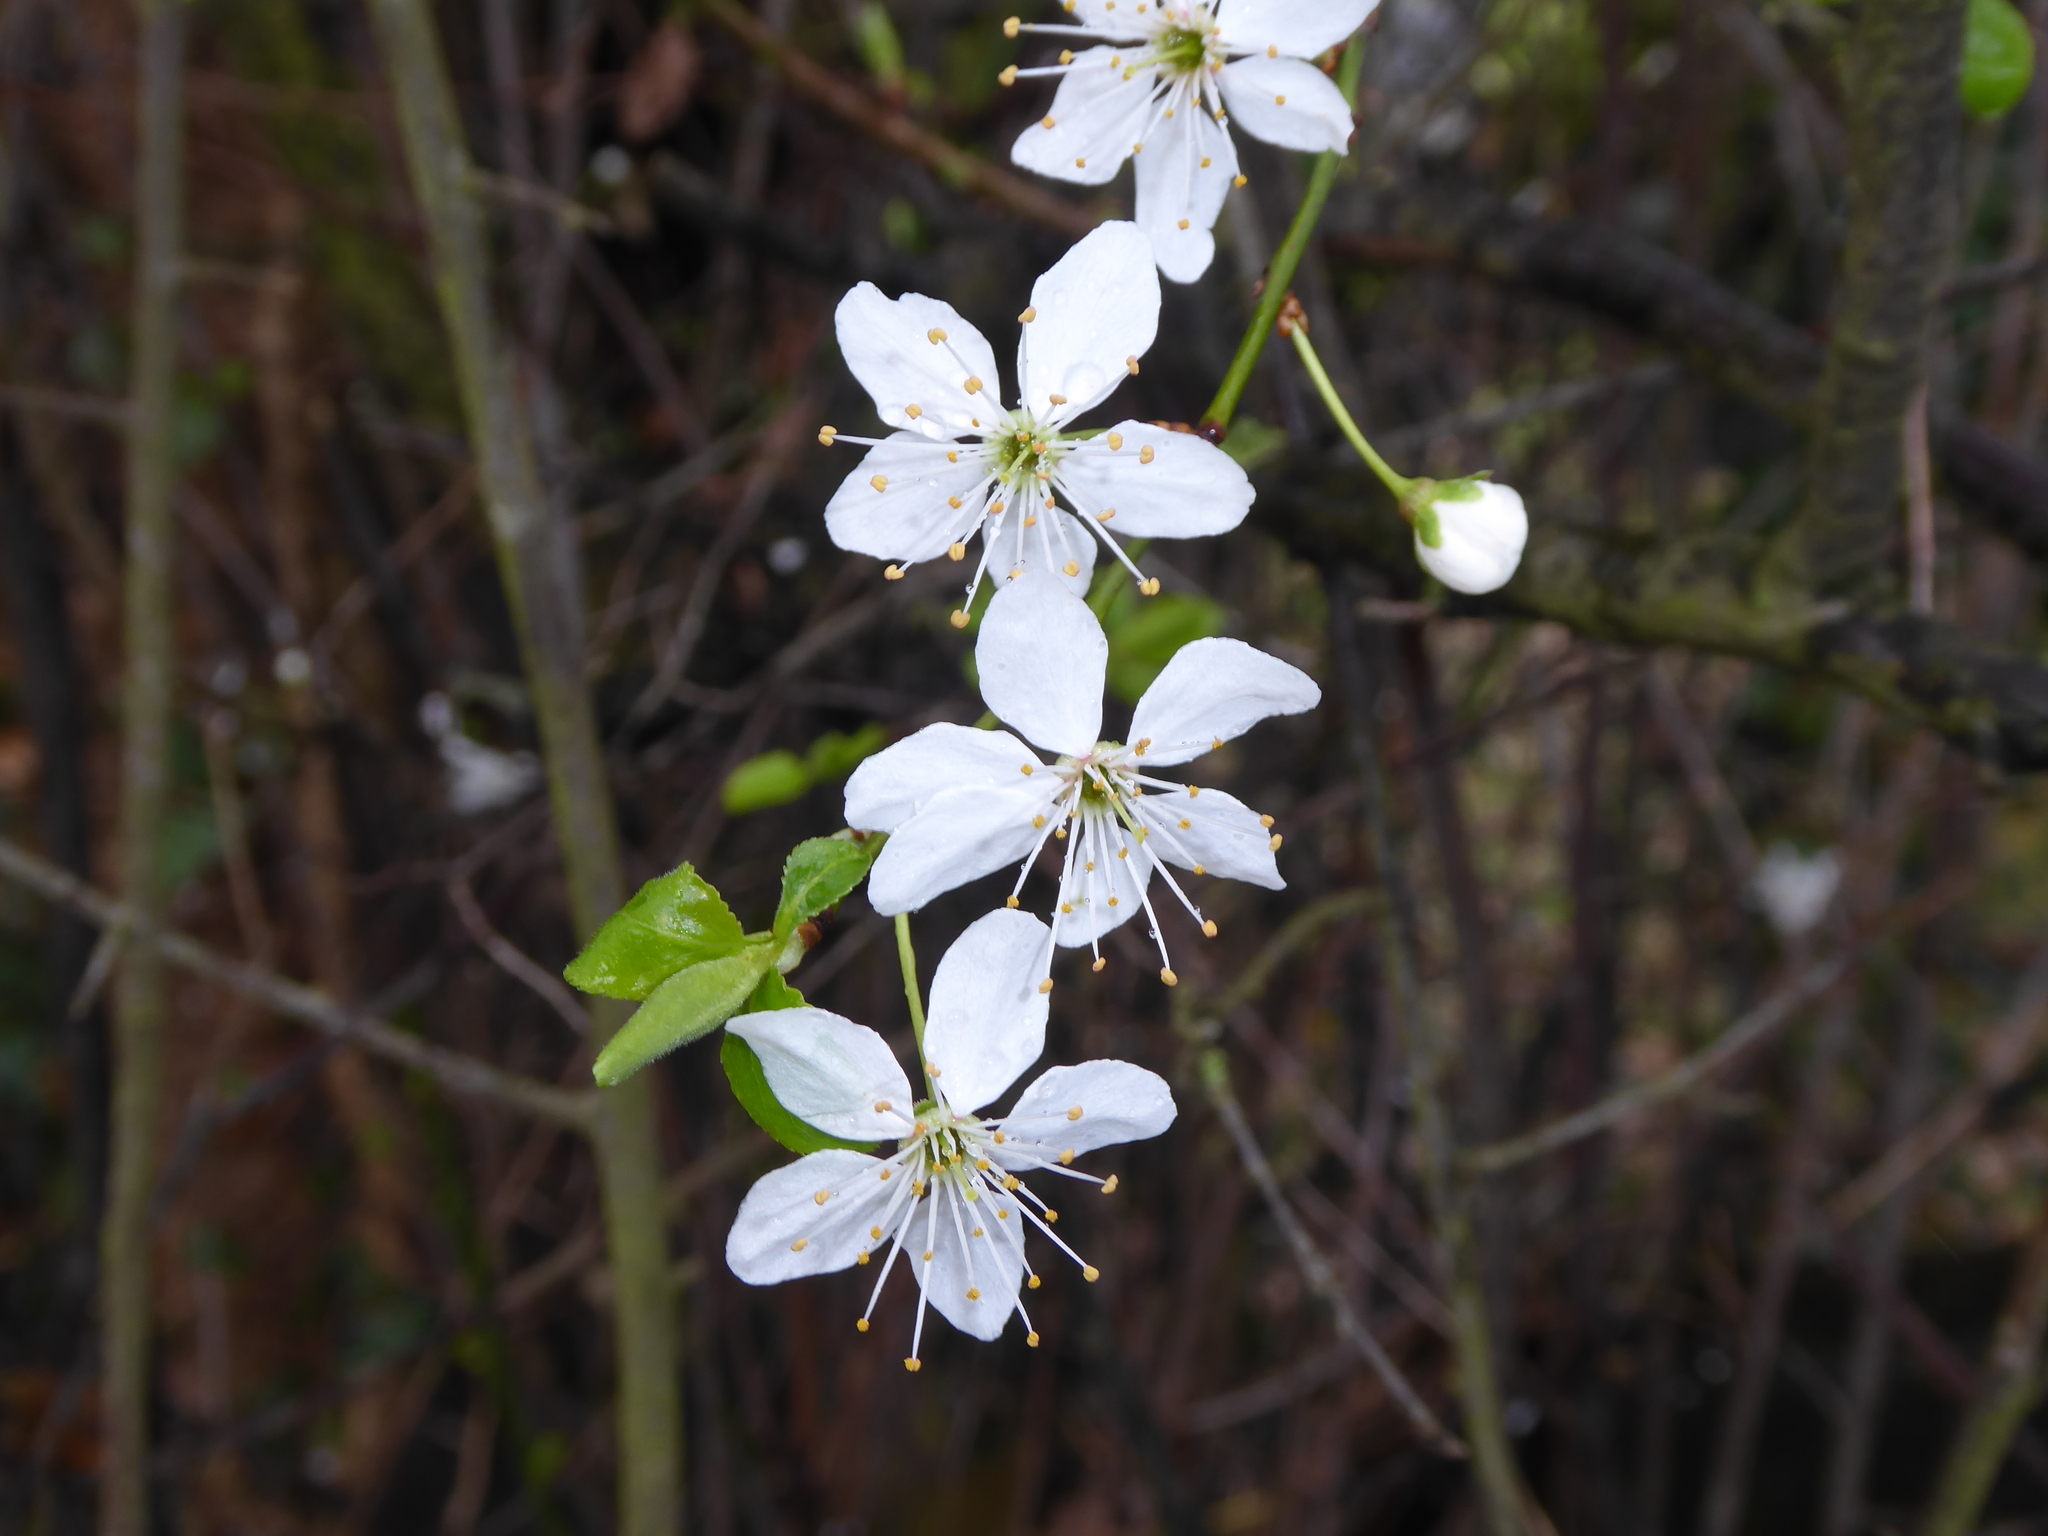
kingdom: Plantae
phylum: Tracheophyta
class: Magnoliopsida
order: Rosales
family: Rosaceae
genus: Prunus
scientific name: Prunus cerasifera
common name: Cherry plum
